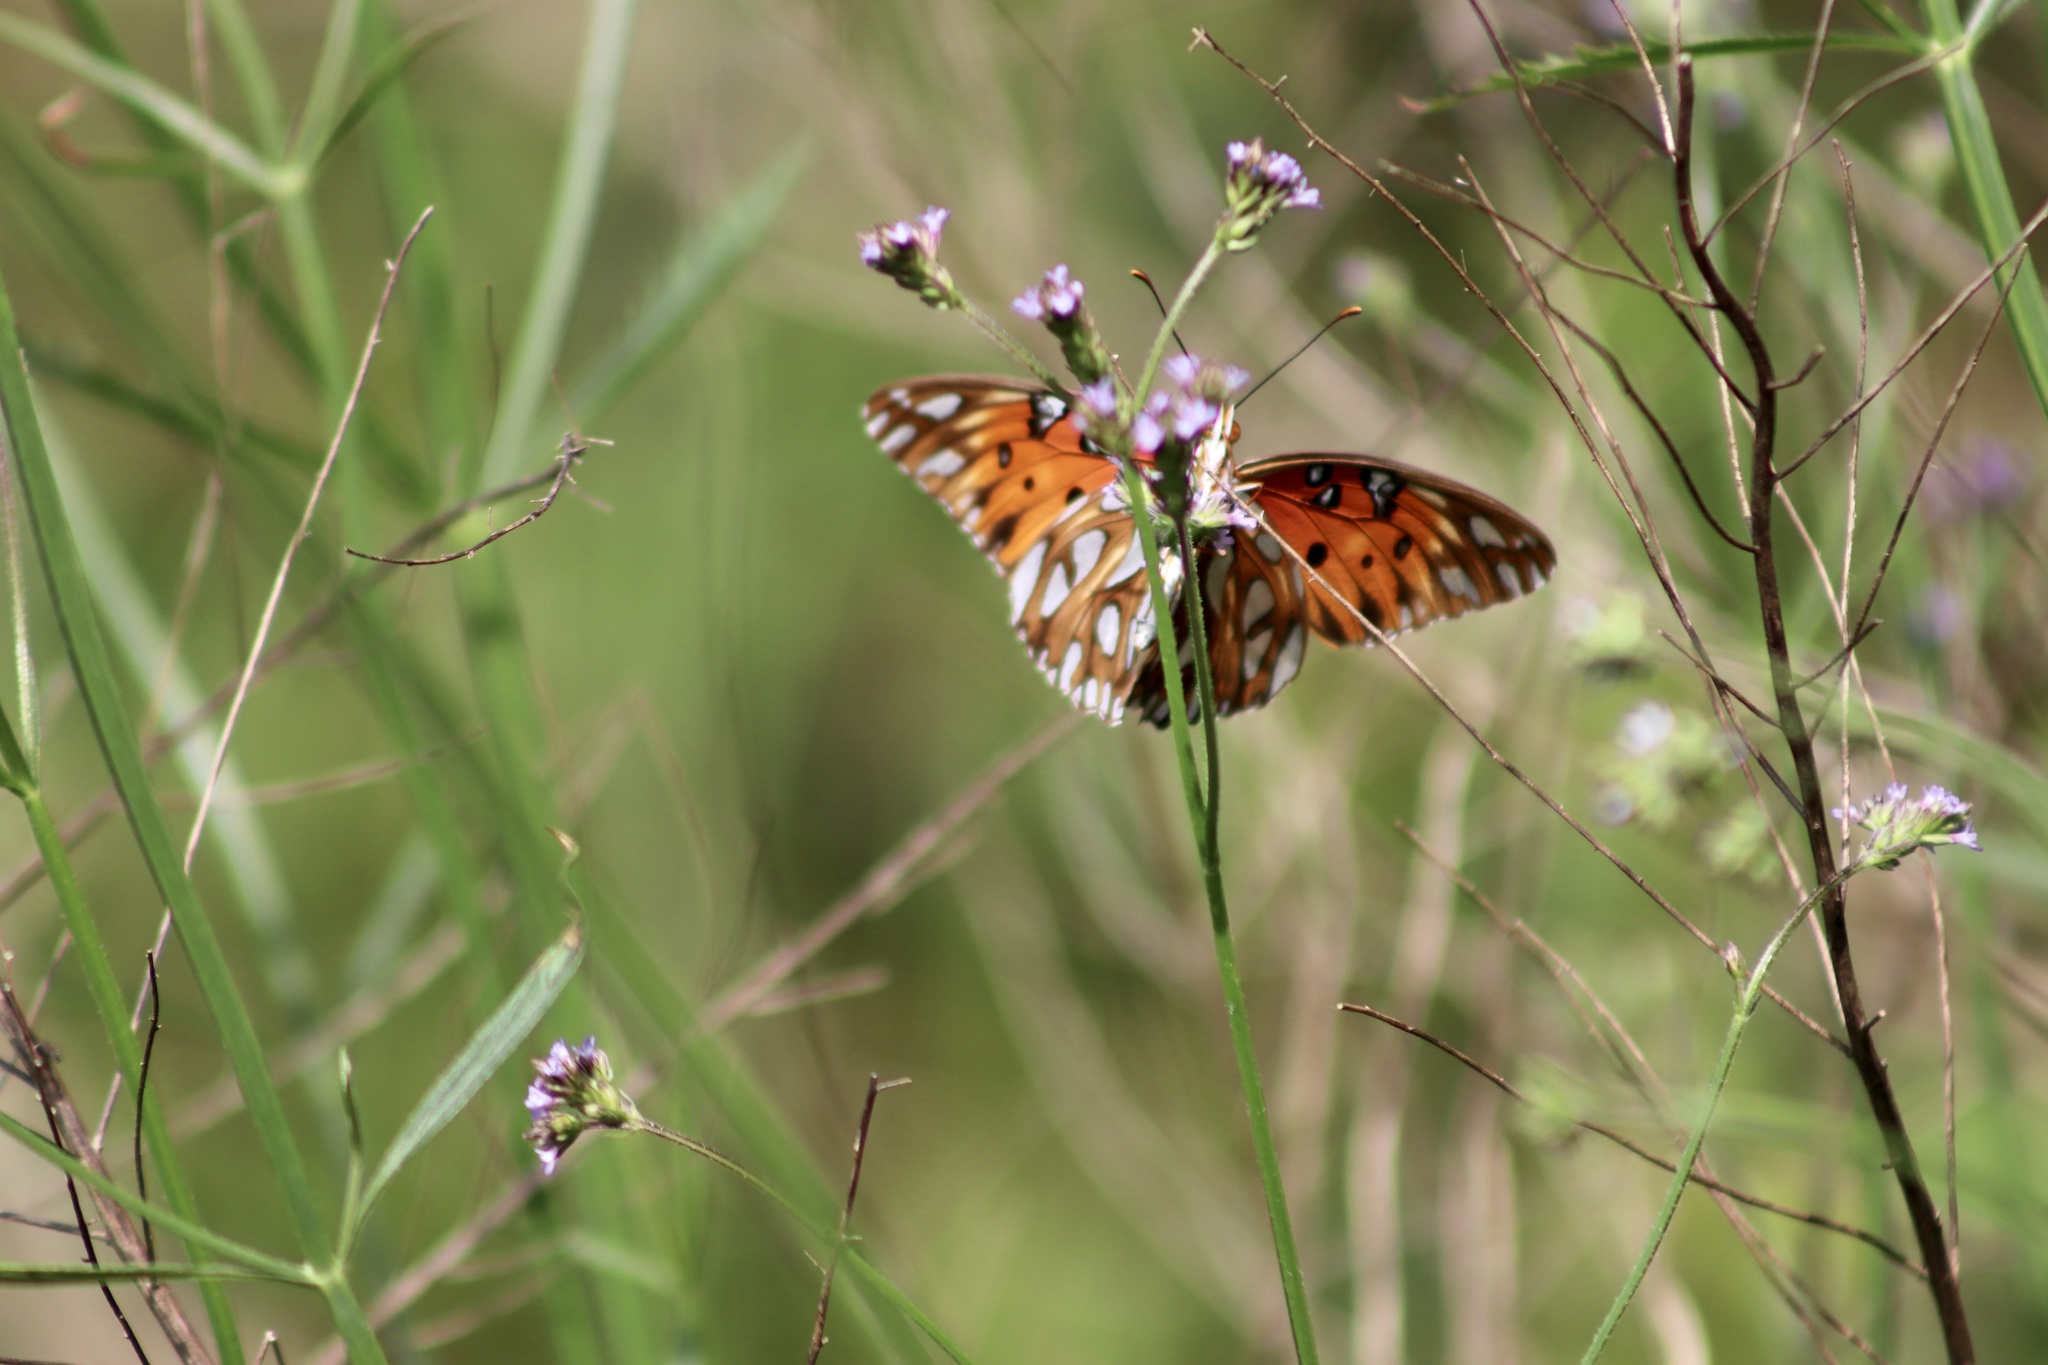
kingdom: Animalia
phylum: Arthropoda
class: Insecta
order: Lepidoptera
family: Nymphalidae
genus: Dione
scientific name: Dione vanillae
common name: Gulf fritillary
